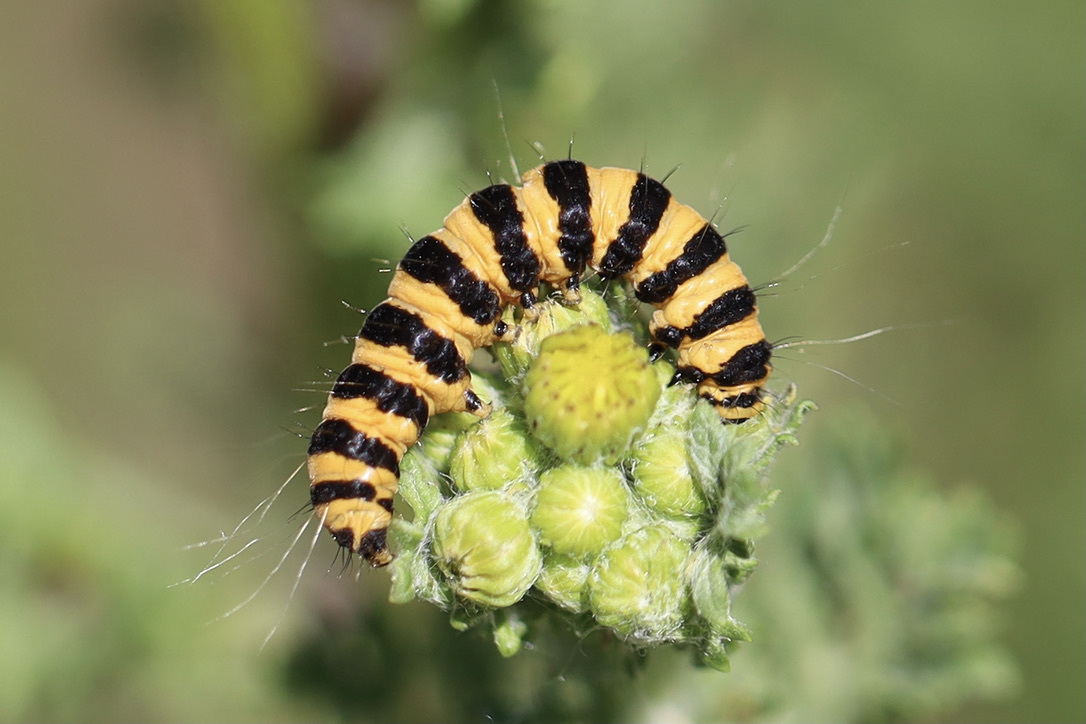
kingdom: Animalia
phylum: Arthropoda
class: Insecta
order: Lepidoptera
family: Erebidae
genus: Tyria
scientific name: Tyria jacobaeae
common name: Cinnabar
